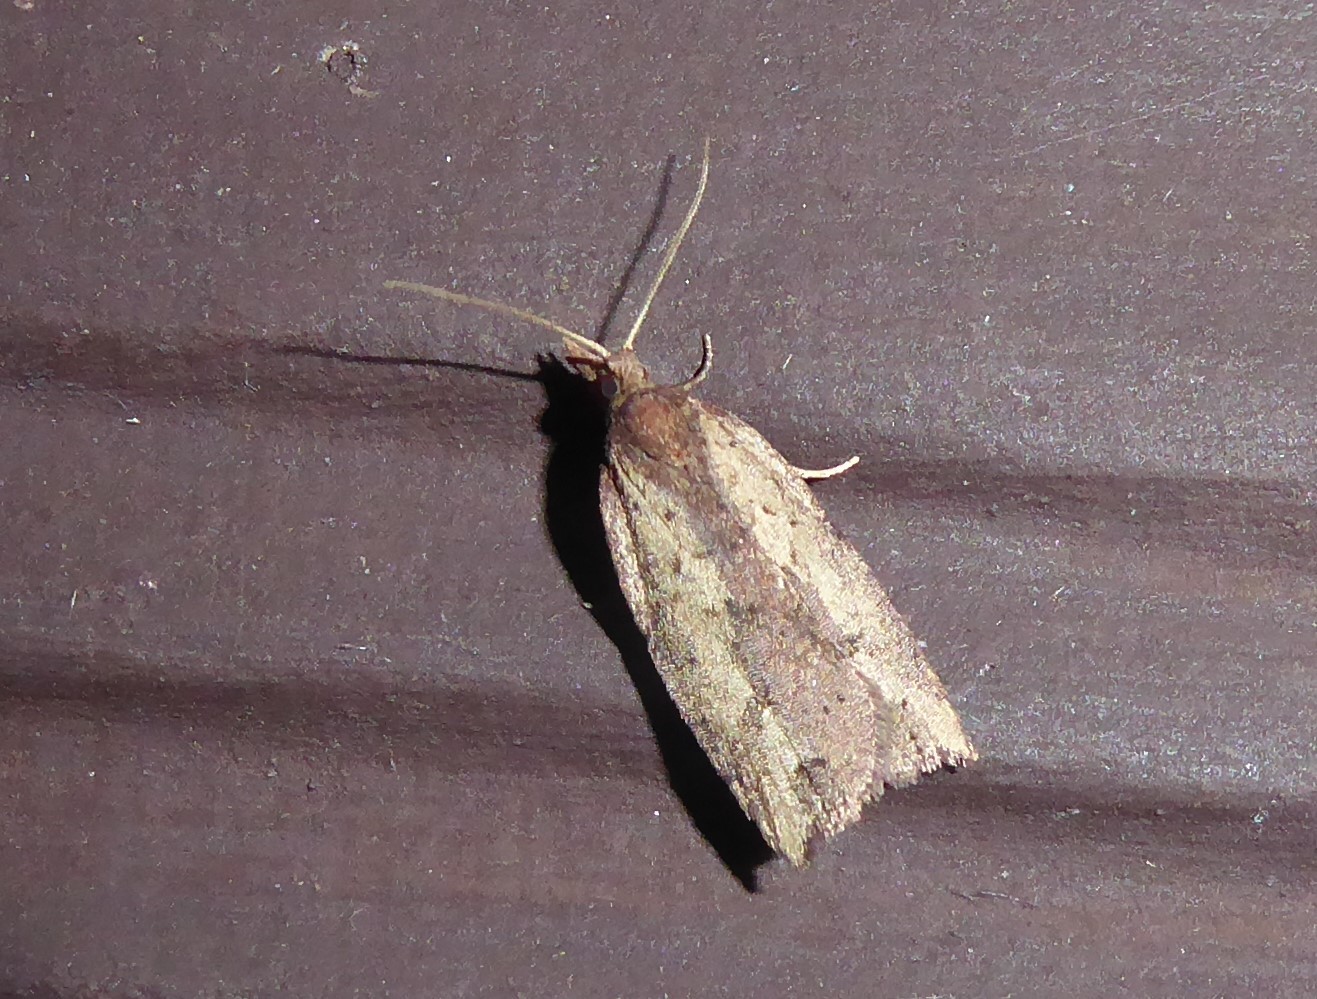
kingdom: Animalia
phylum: Arthropoda
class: Insecta
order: Lepidoptera
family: Tortricidae
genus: Planotortrix
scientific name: Planotortrix notophaea
